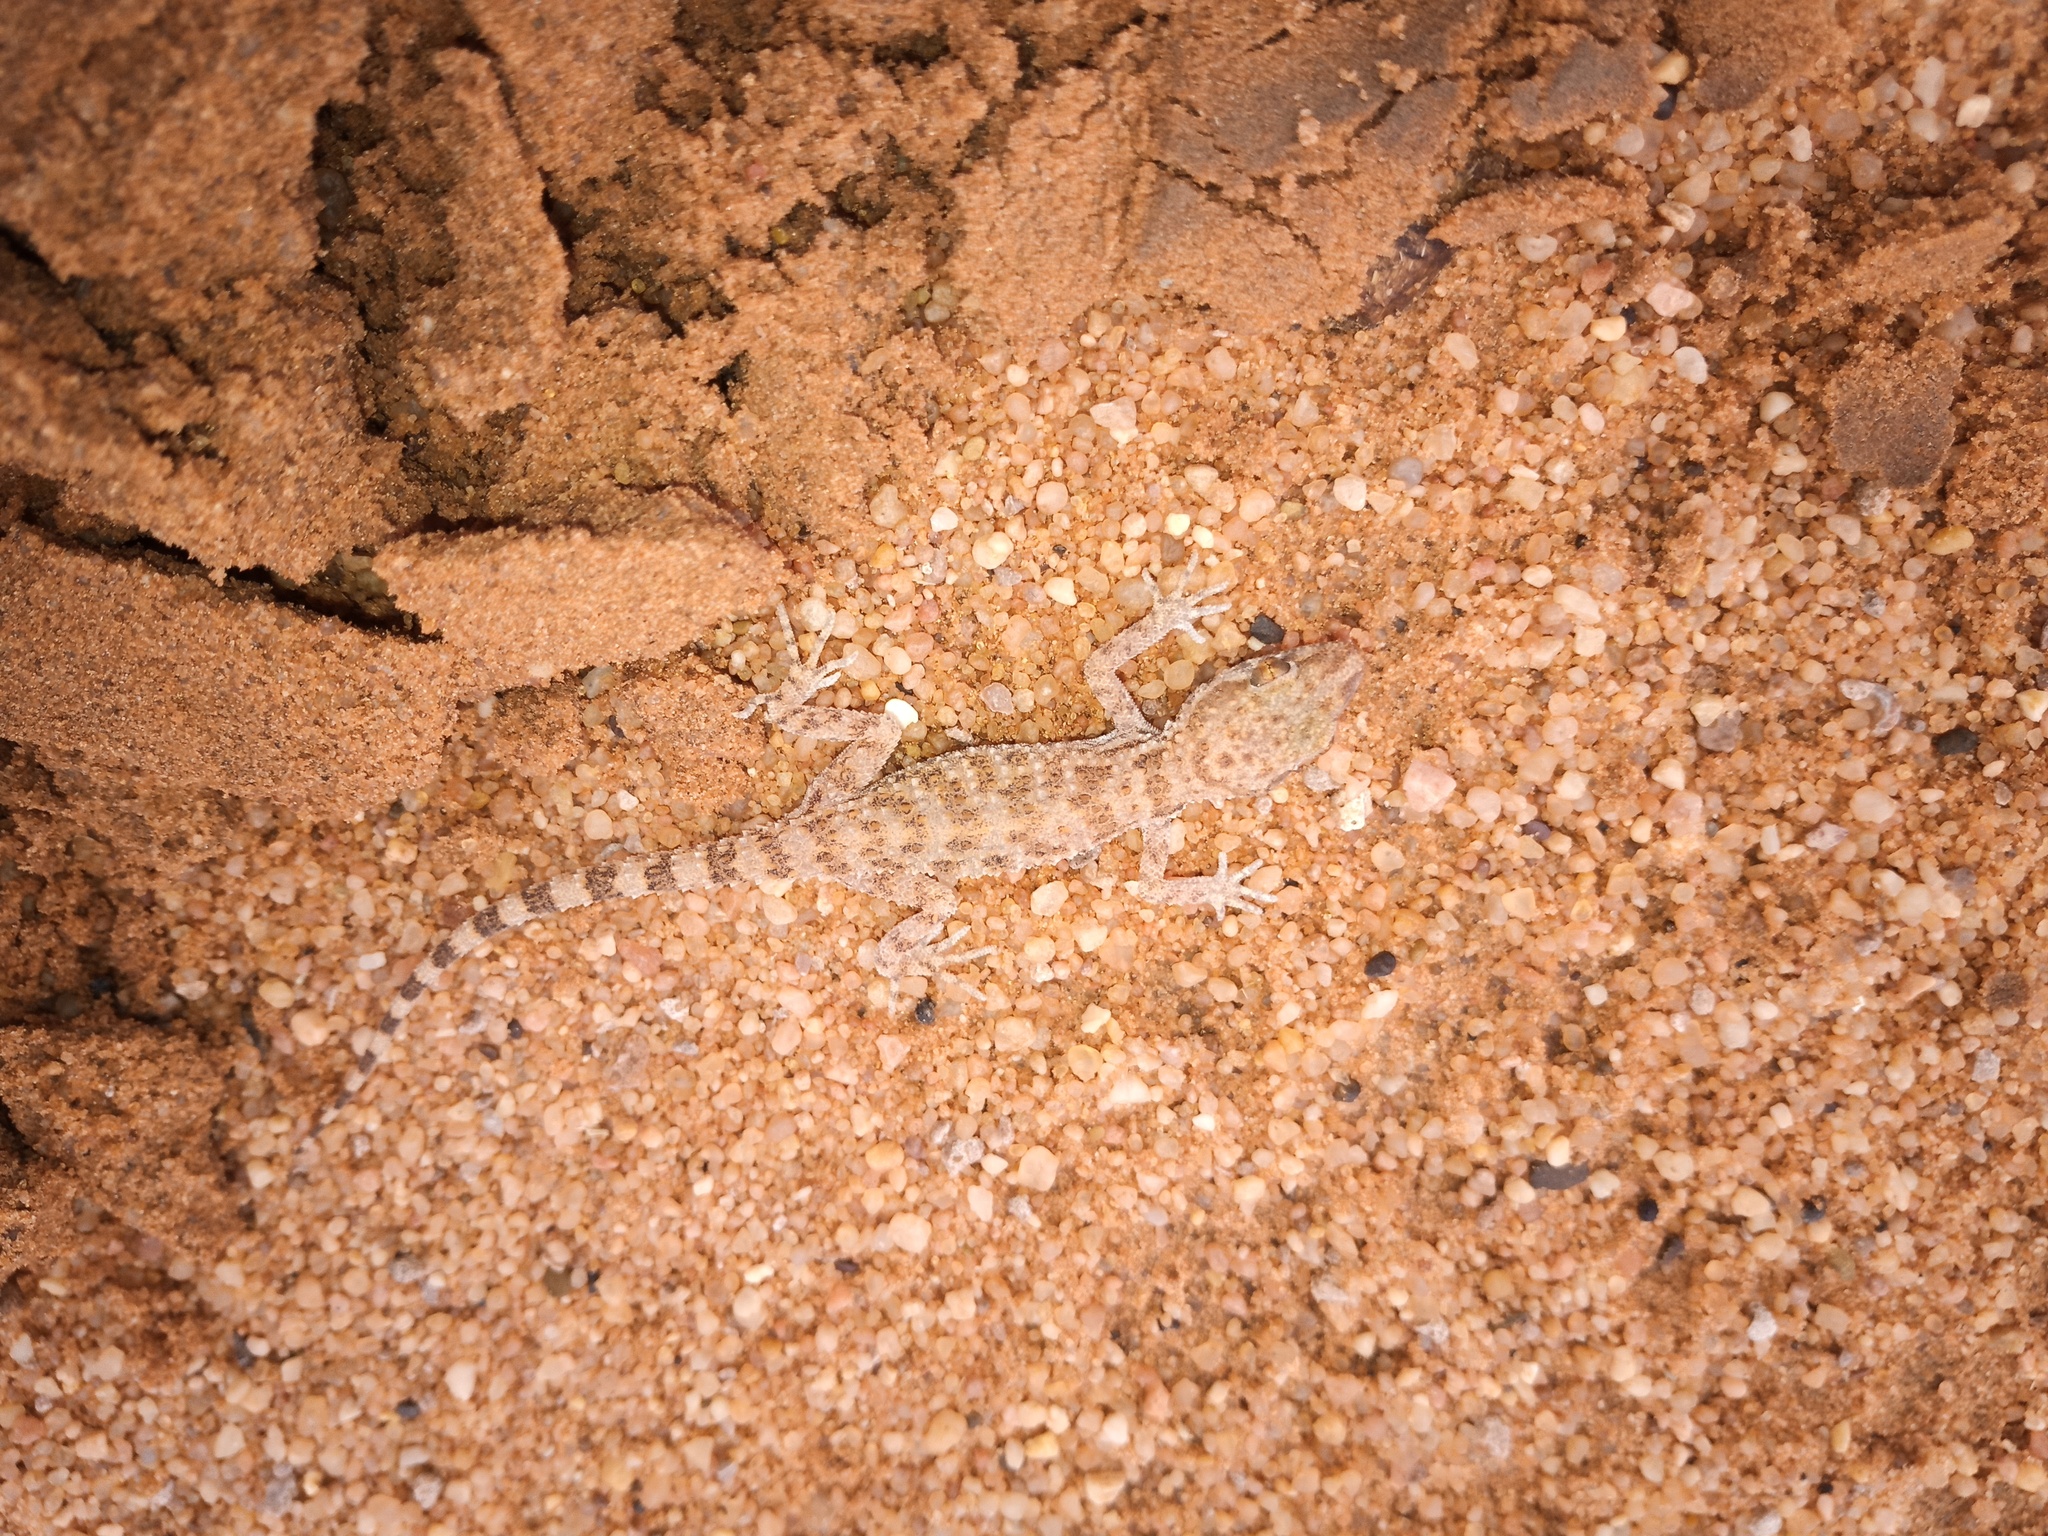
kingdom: Animalia
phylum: Chordata
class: Squamata
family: Gekkonidae
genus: Bunopus
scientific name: Bunopus tuberculatus
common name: Southern tuberculated gecko
